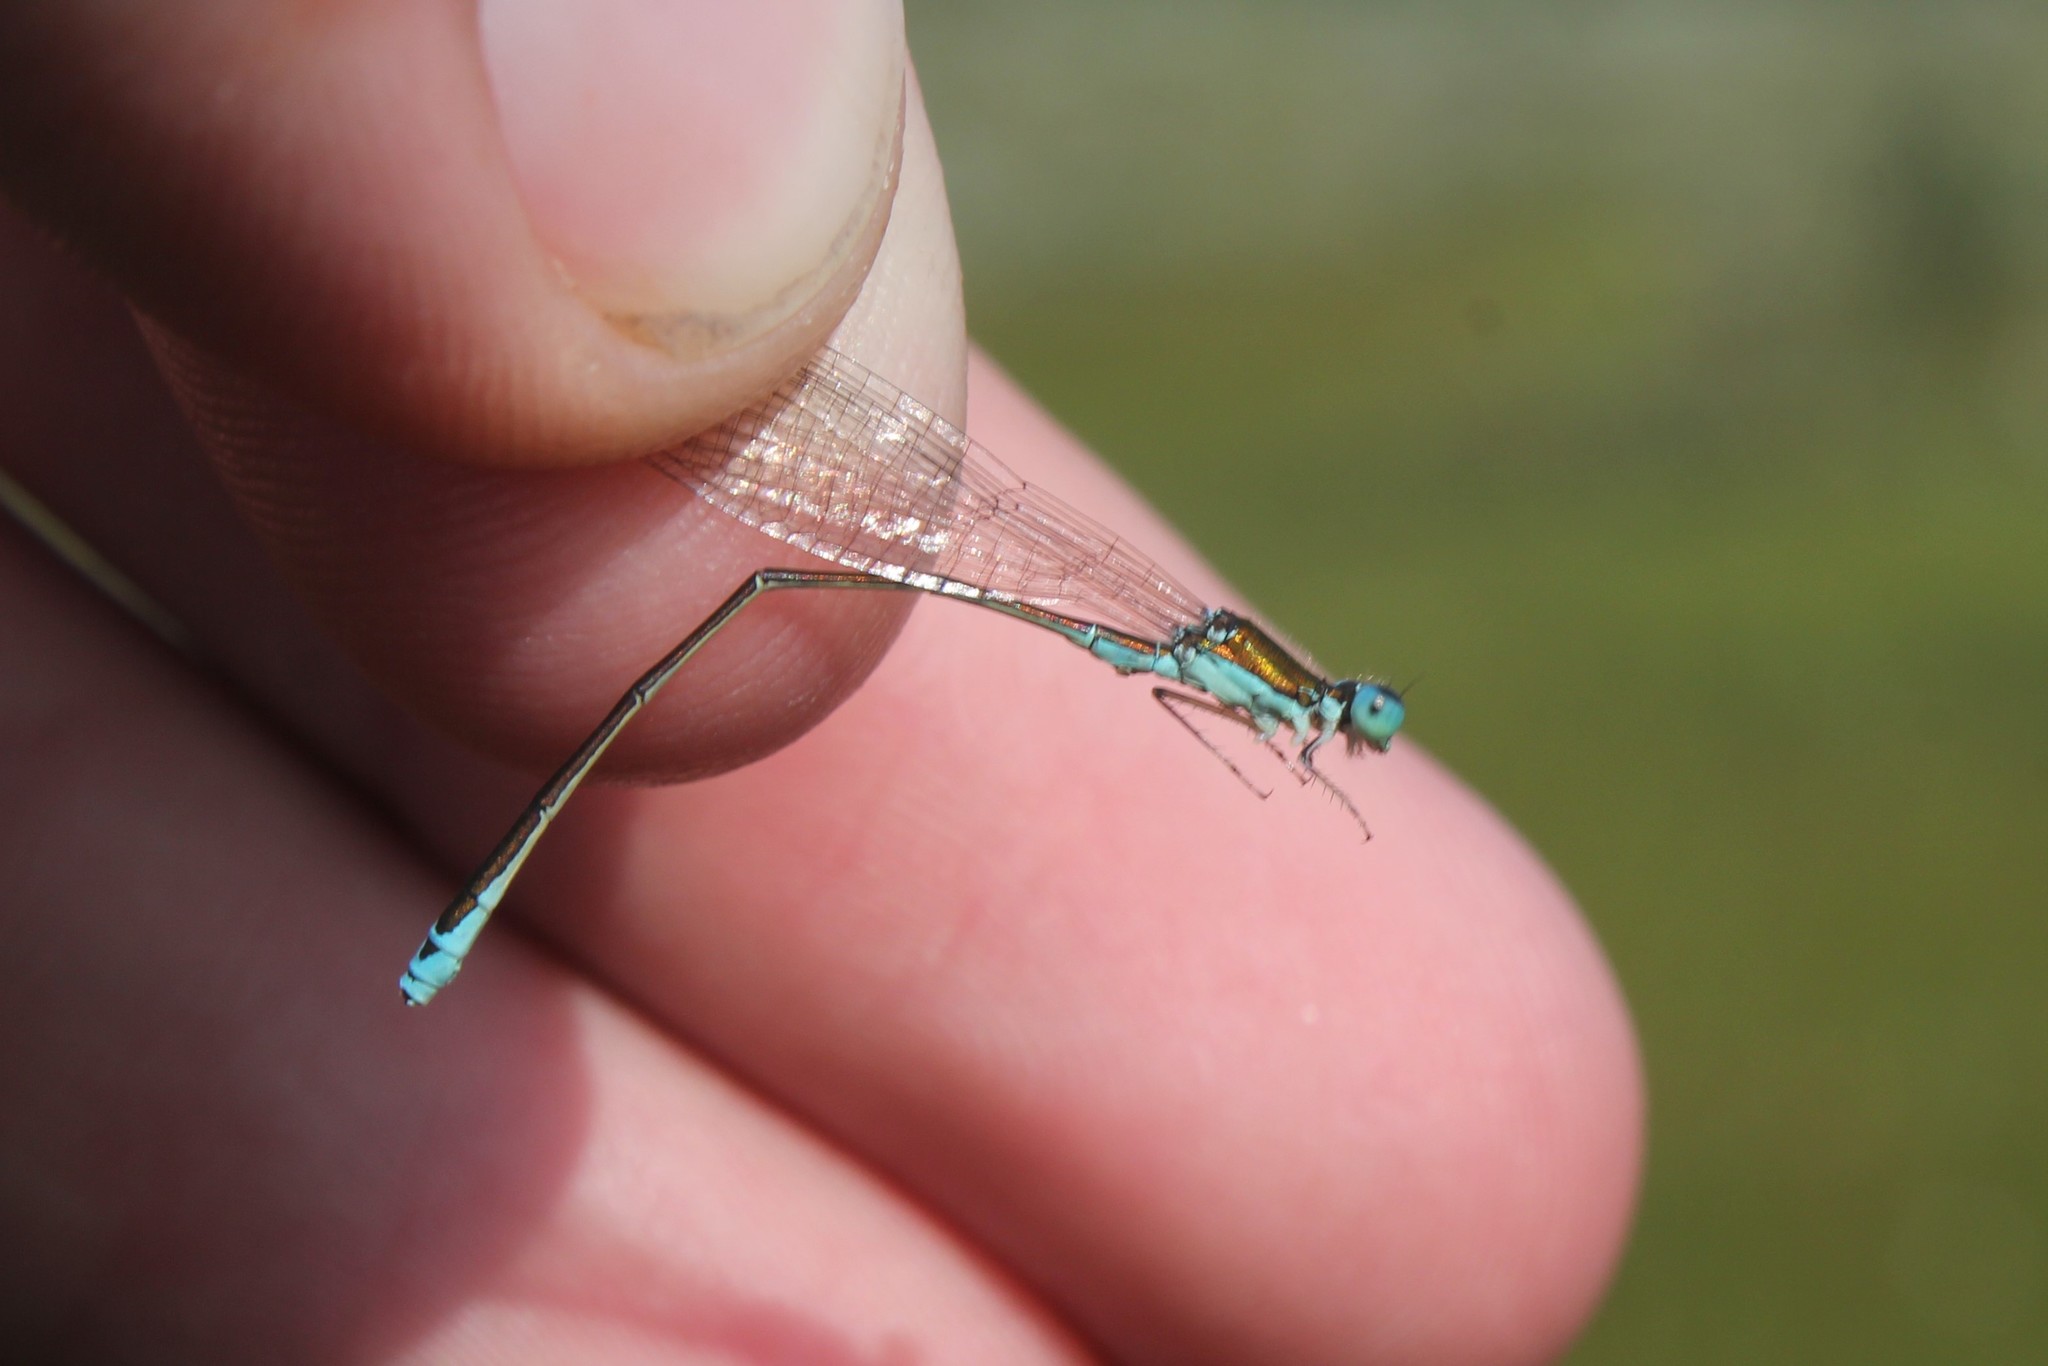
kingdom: Animalia
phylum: Arthropoda
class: Insecta
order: Odonata
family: Coenagrionidae
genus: Nehalennia
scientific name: Nehalennia irene
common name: Sedge sprite
